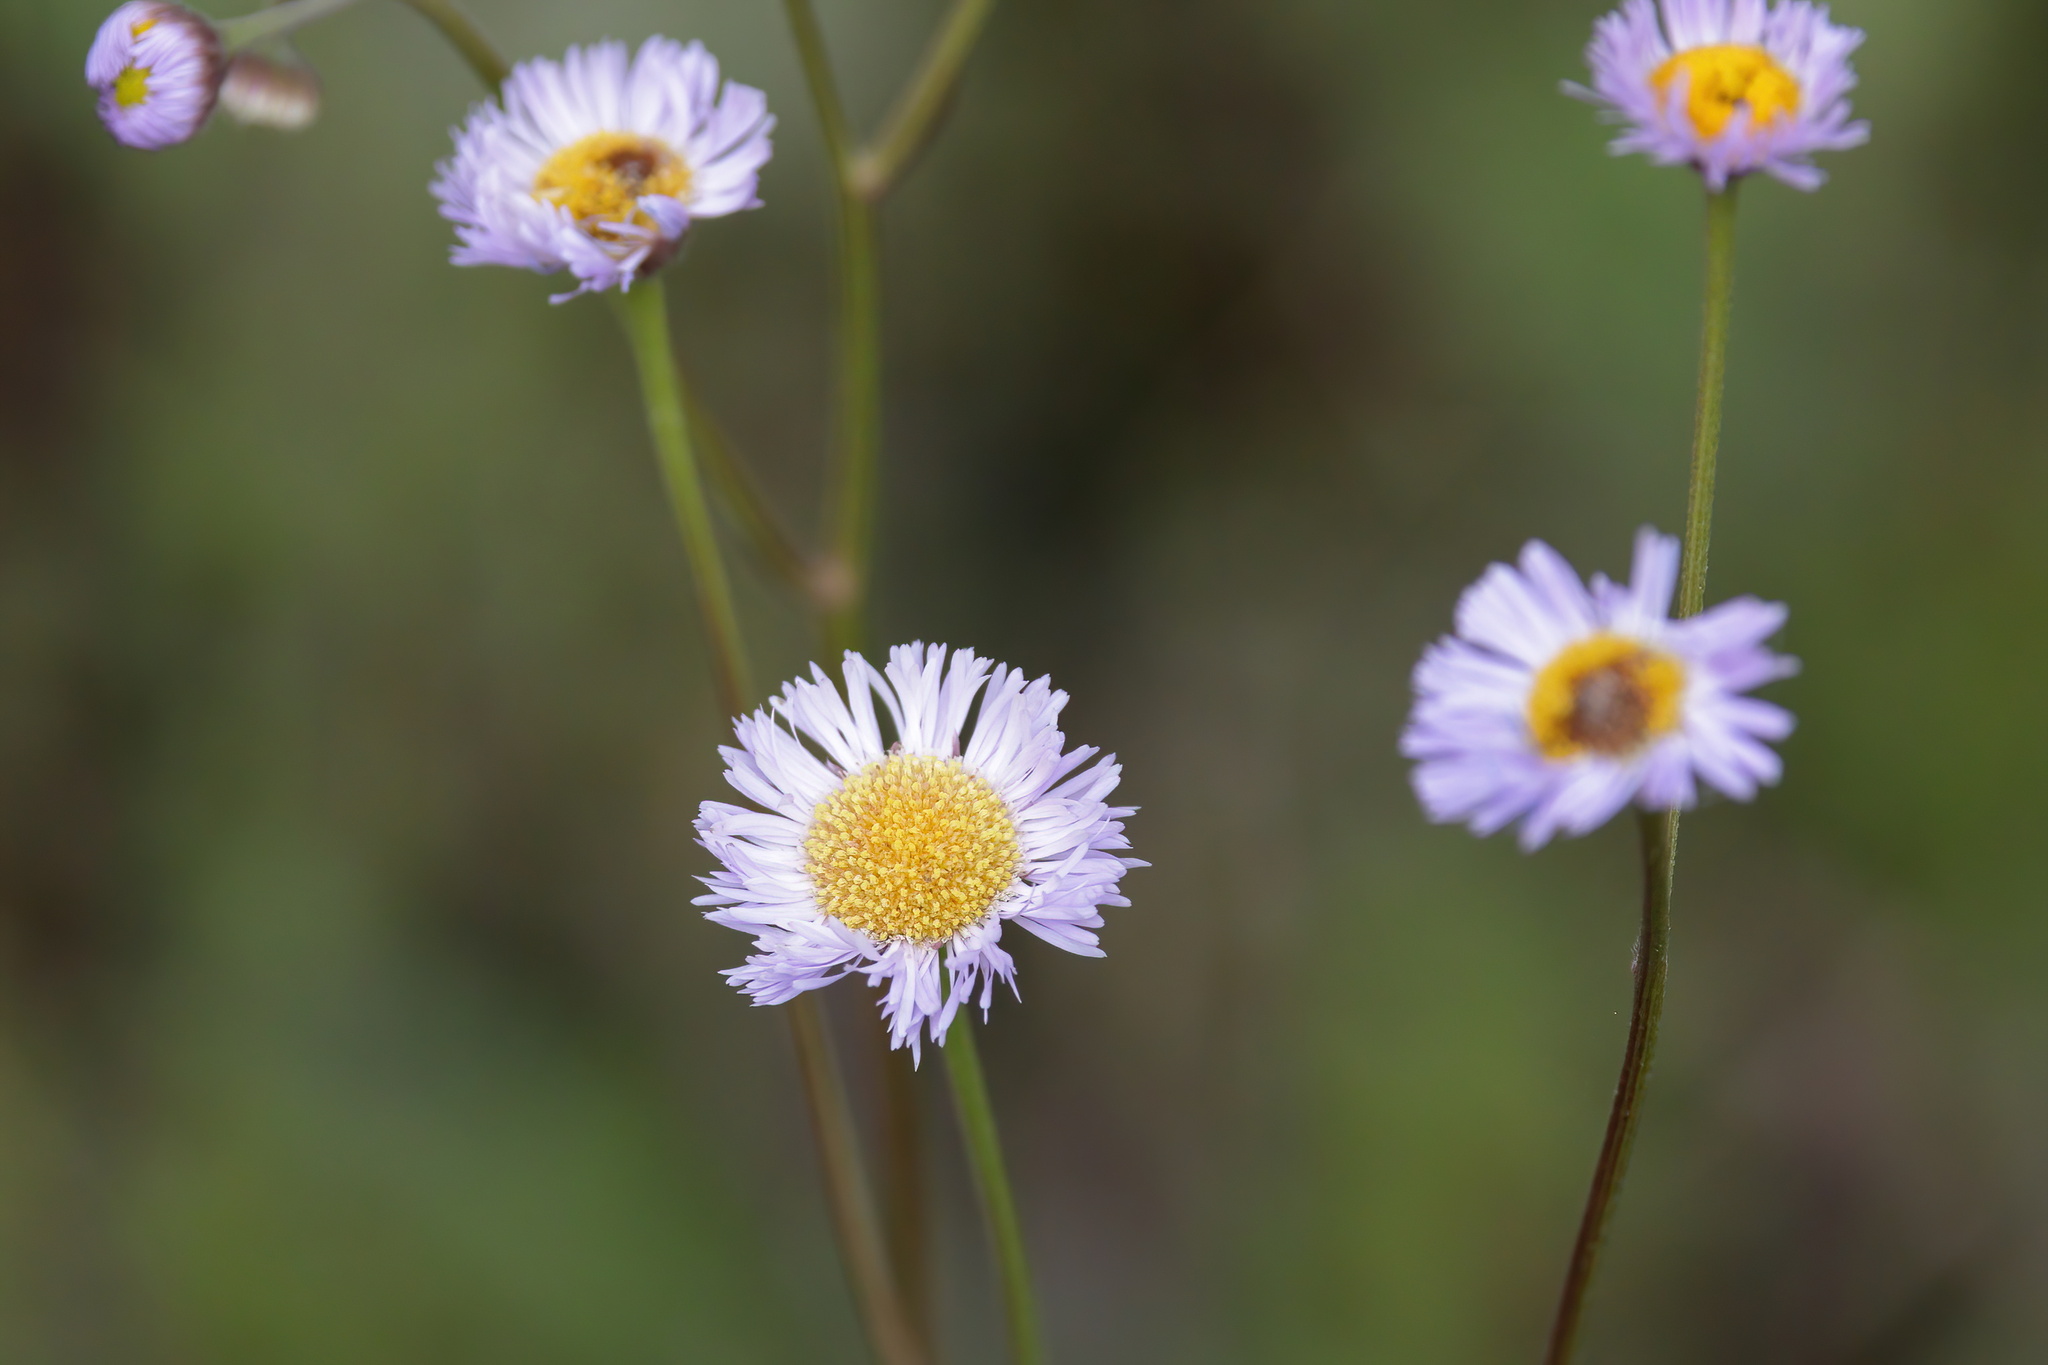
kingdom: Plantae
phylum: Tracheophyta
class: Magnoliopsida
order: Asterales
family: Asteraceae
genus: Erigeron
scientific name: Erigeron tenuis
